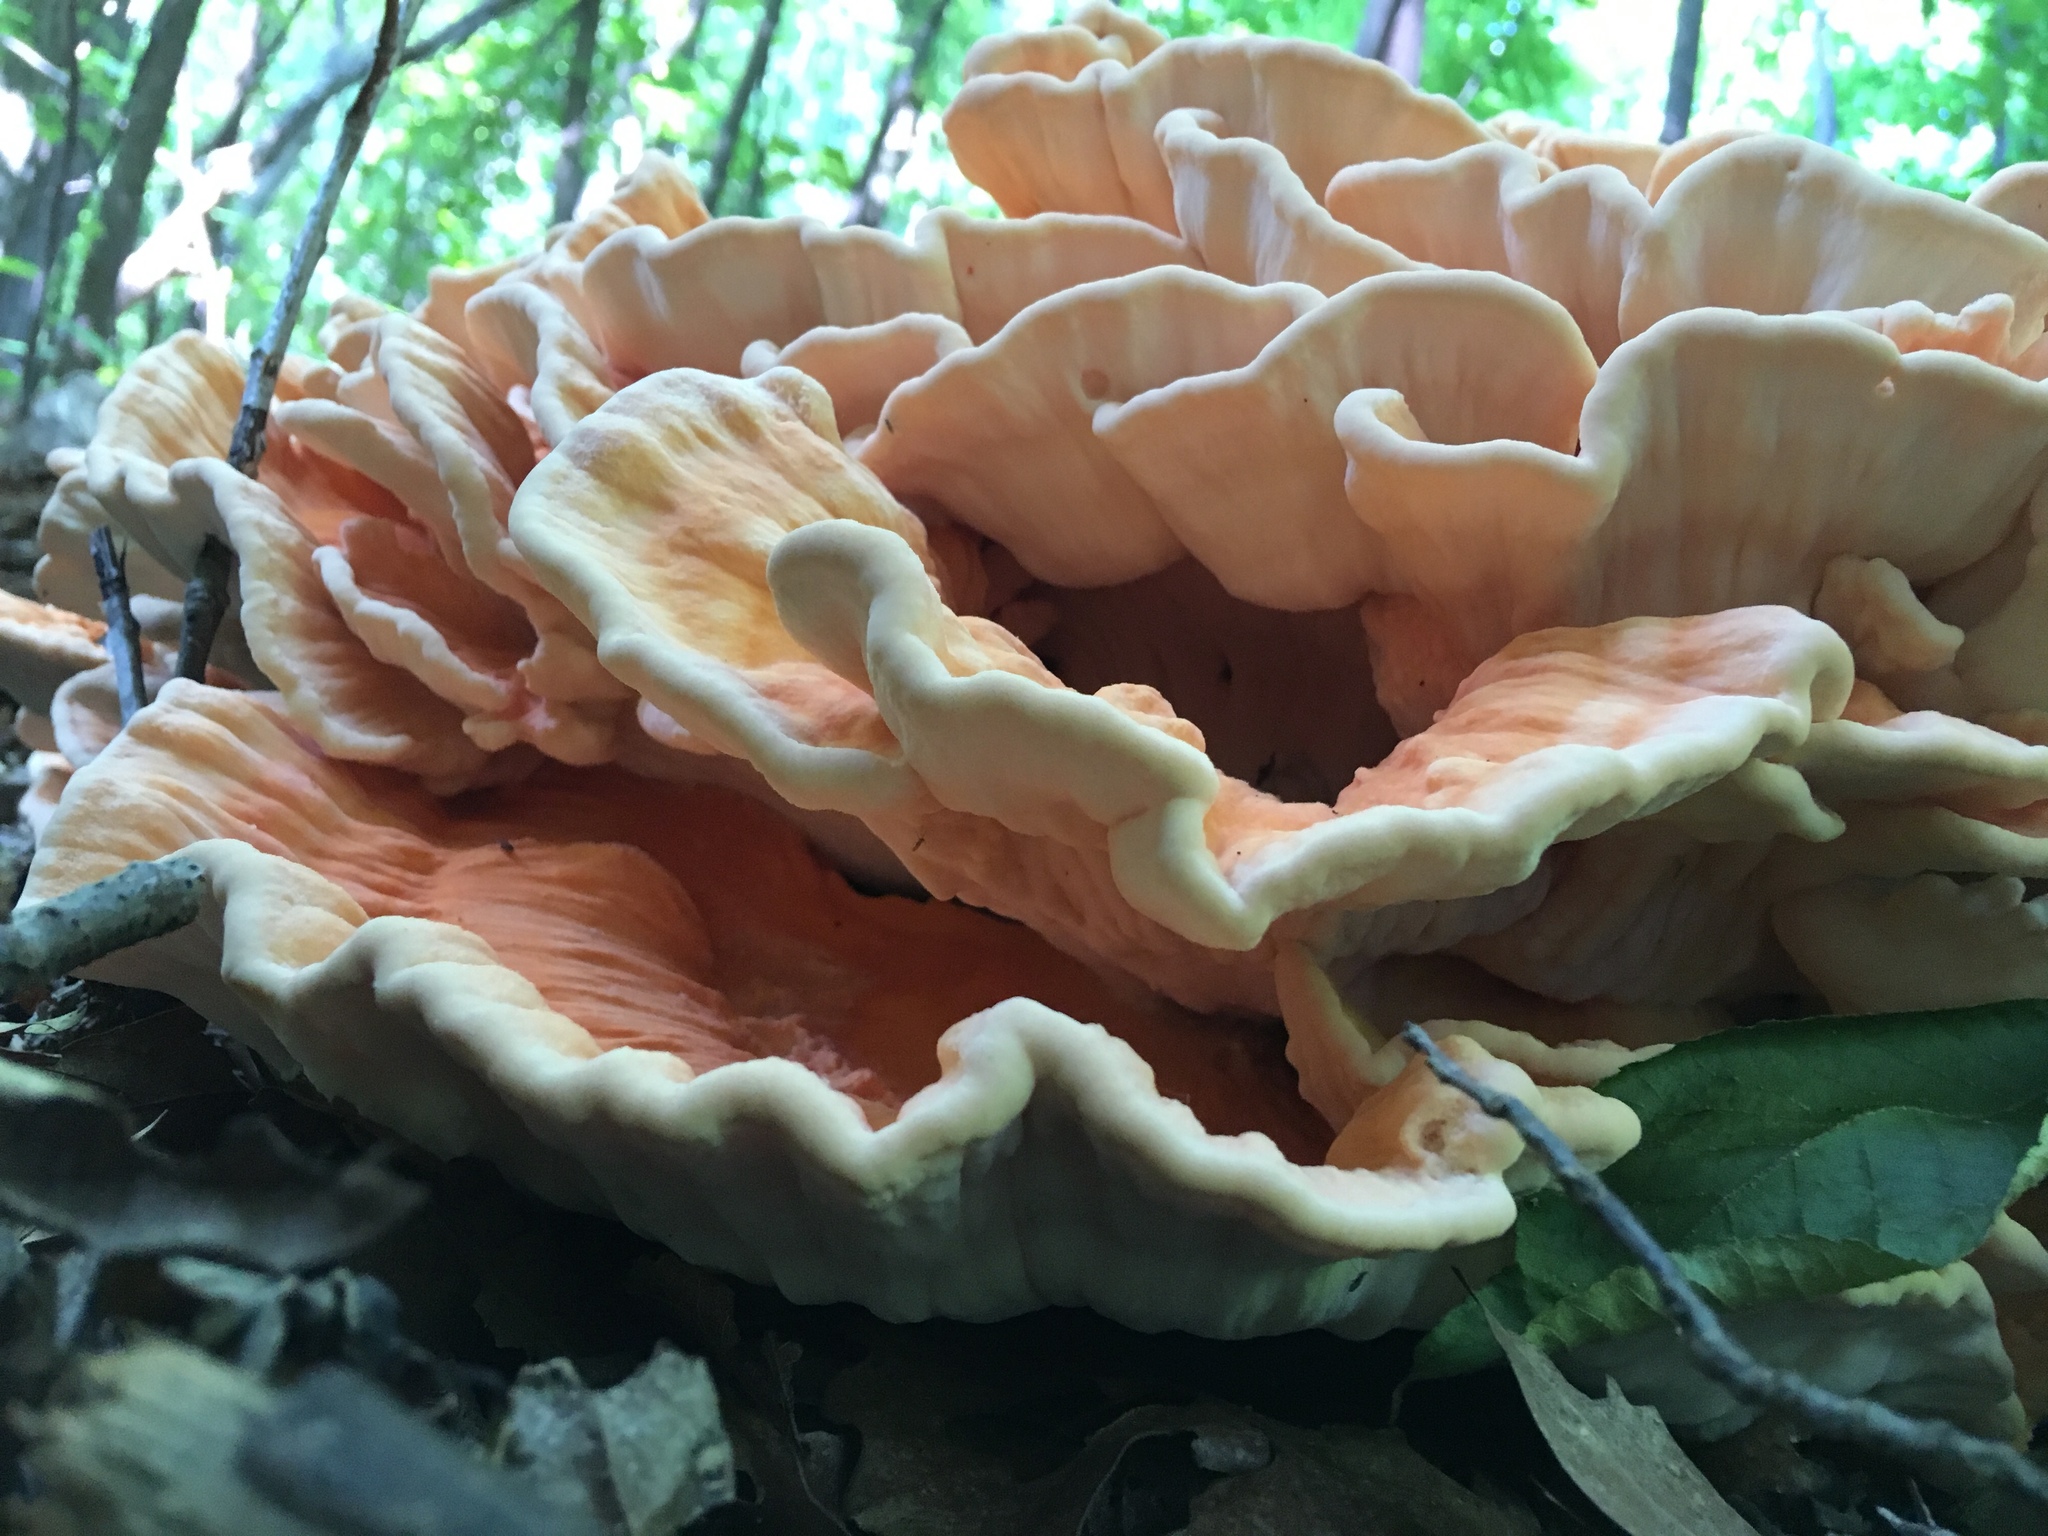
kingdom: Fungi
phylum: Basidiomycota
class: Agaricomycetes
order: Polyporales
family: Laetiporaceae
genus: Laetiporus
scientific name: Laetiporus sulphureus
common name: Chicken of the woods
